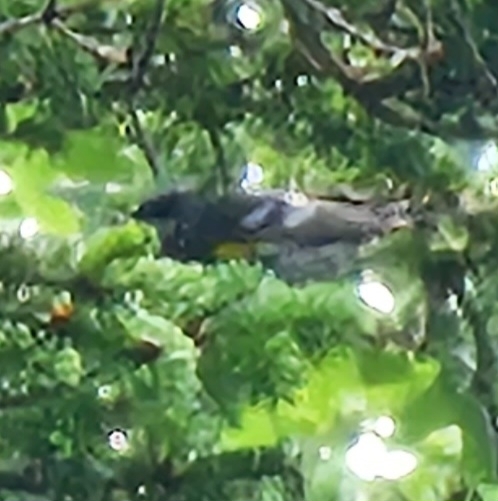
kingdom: Animalia
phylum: Chordata
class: Aves
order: Passeriformes
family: Parulidae
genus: Setophaga
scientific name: Setophaga coronata
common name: Myrtle warbler
